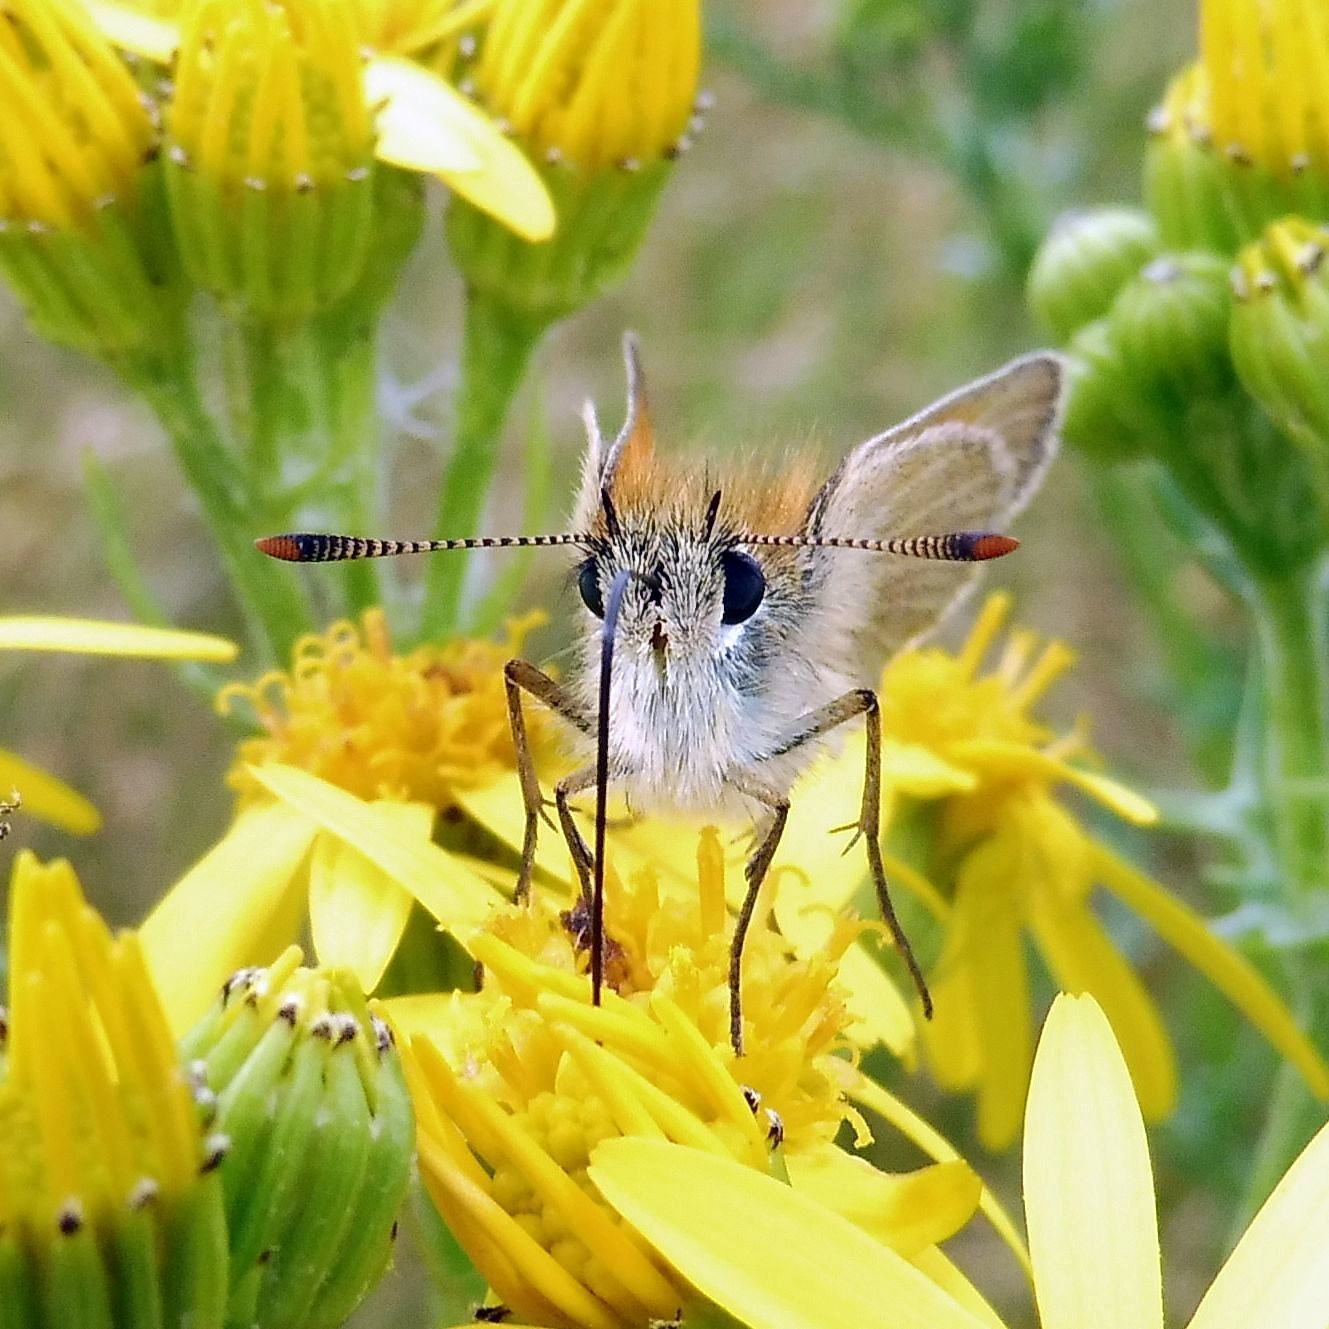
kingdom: Animalia
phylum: Arthropoda
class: Insecta
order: Lepidoptera
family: Hesperiidae
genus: Thymelicus
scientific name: Thymelicus sylvestris
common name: Small skipper
